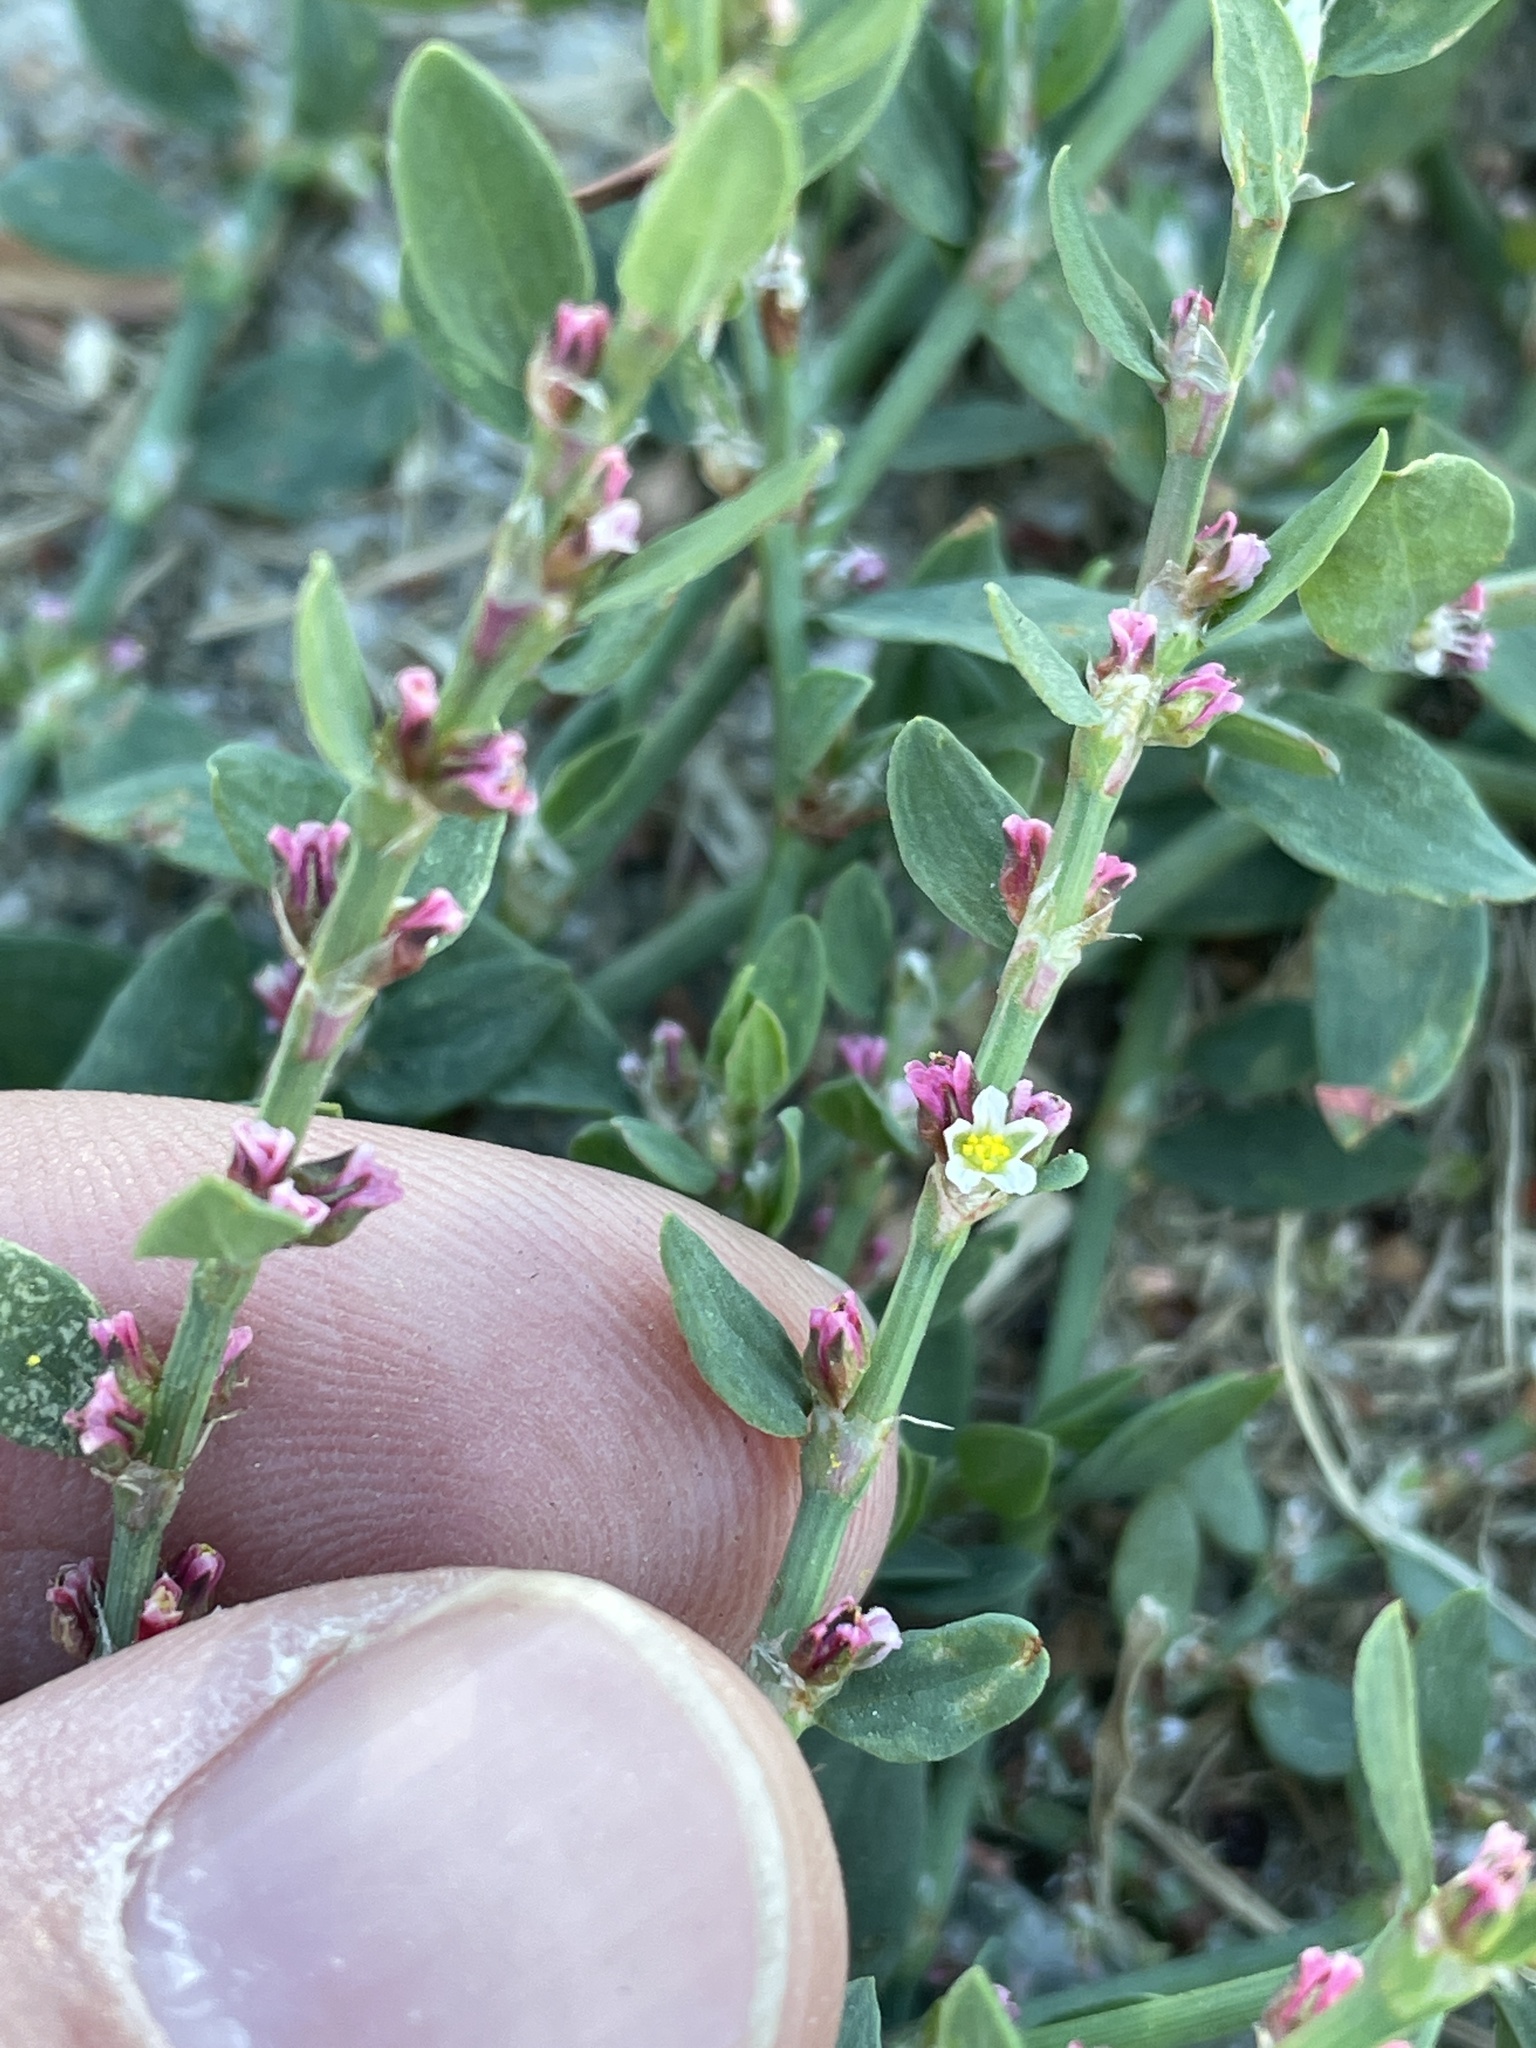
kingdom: Plantae
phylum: Tracheophyta
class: Magnoliopsida
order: Caryophyllales
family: Polygonaceae
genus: Polygonum
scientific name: Polygonum aviculare
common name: Prostrate knotweed
